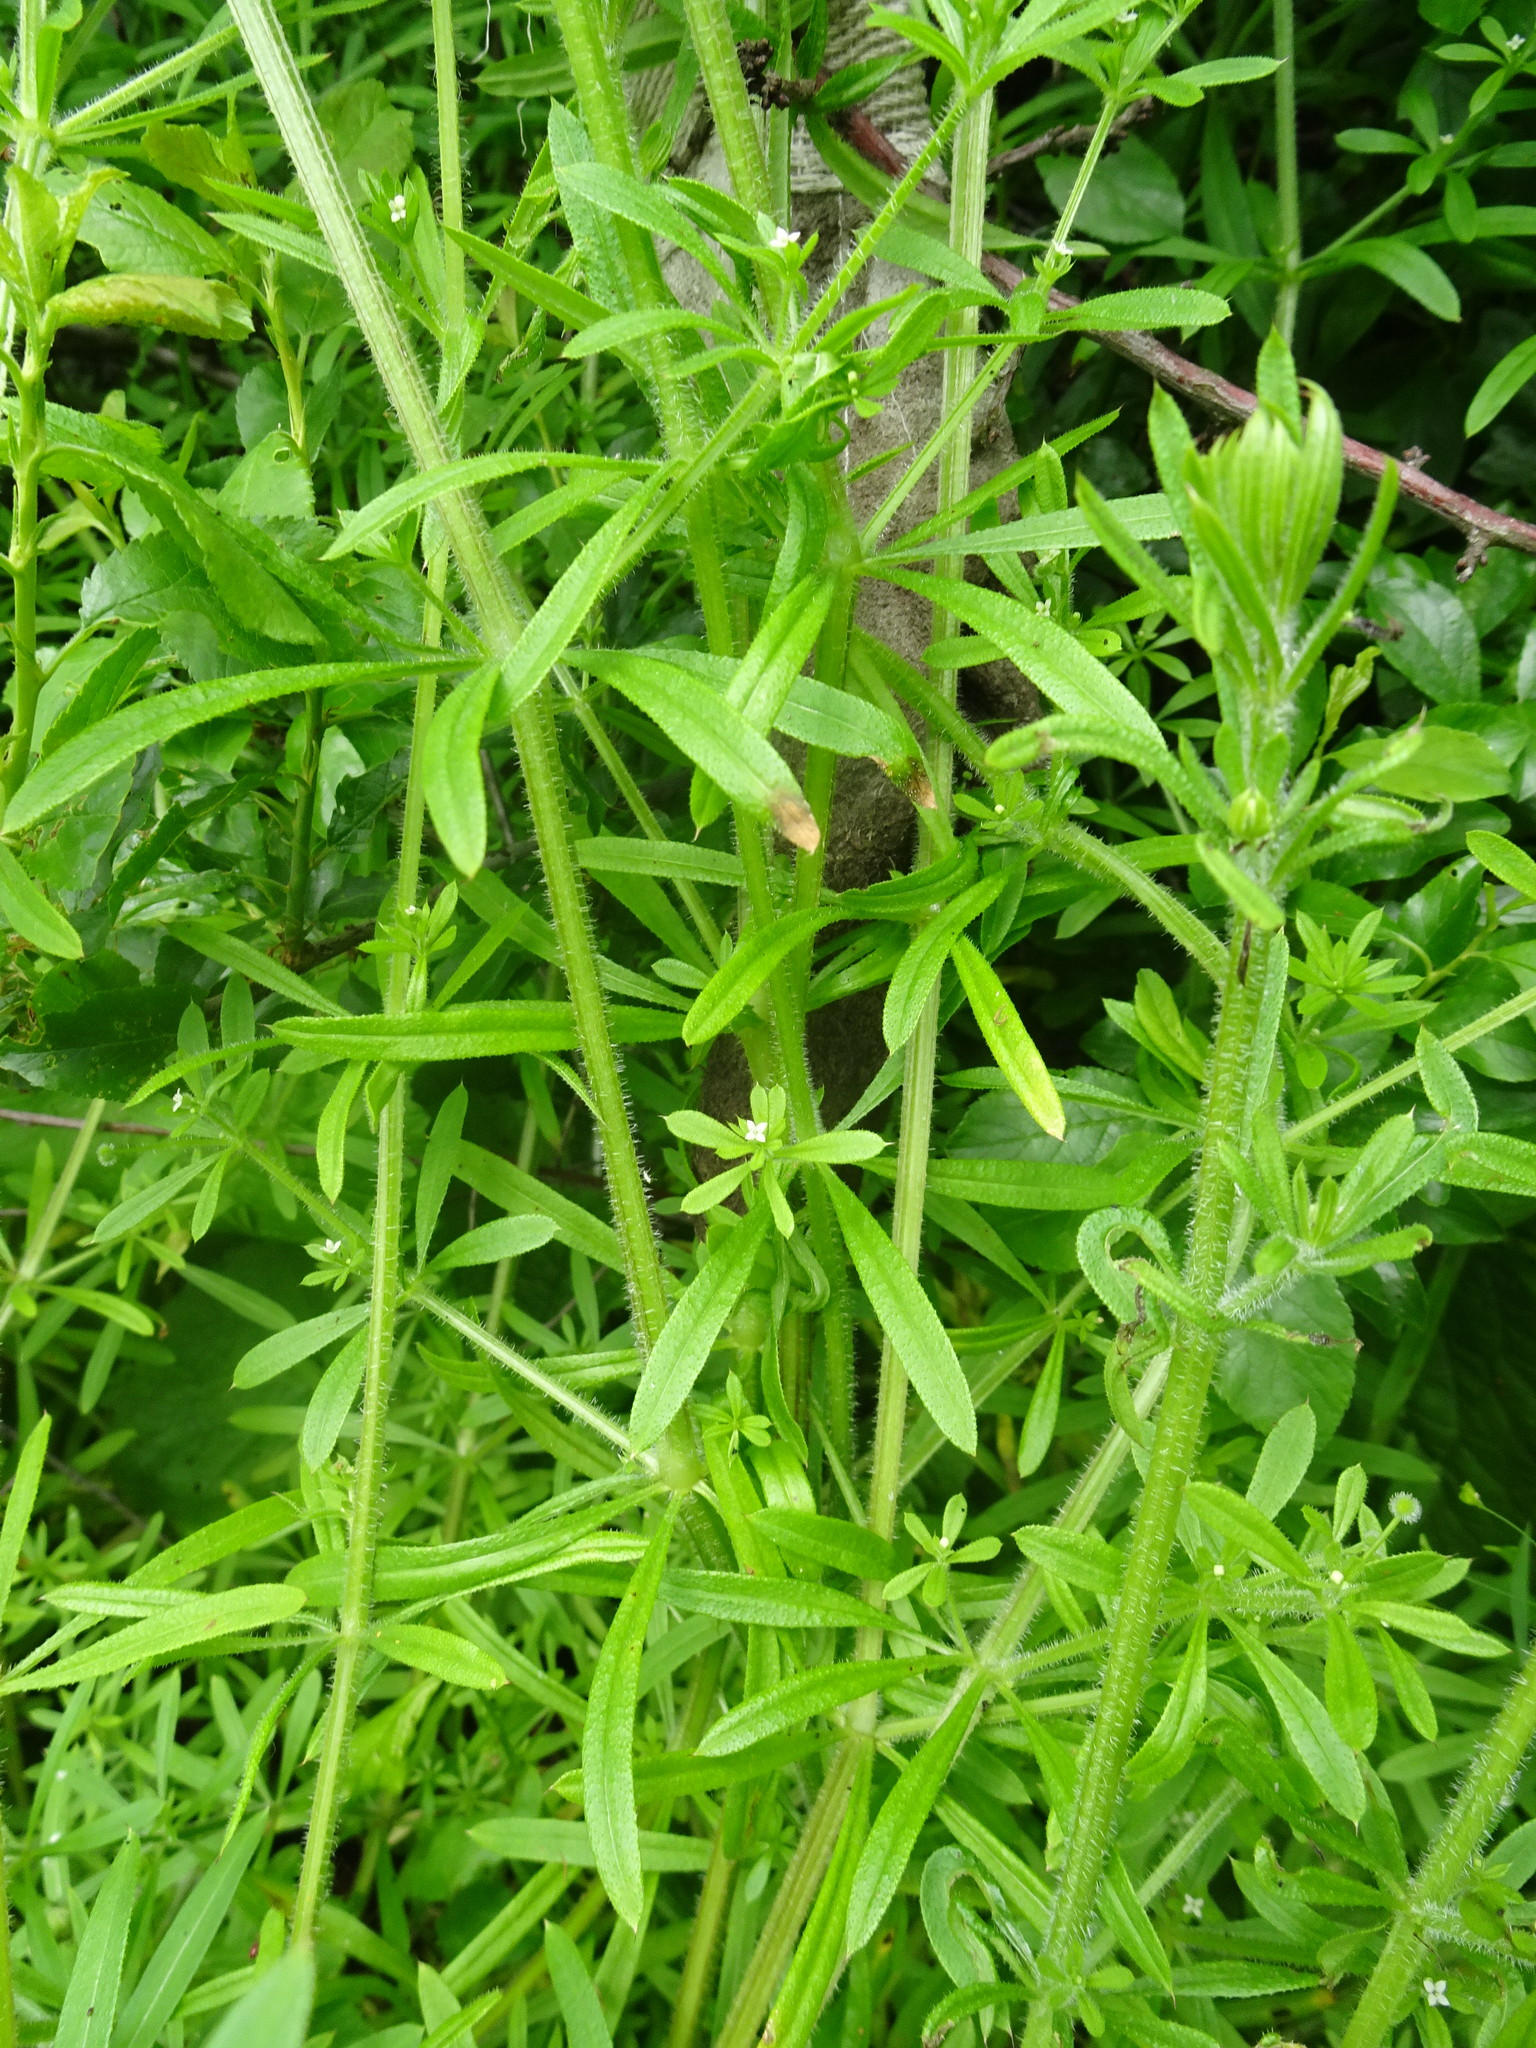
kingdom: Plantae
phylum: Tracheophyta
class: Magnoliopsida
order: Gentianales
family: Rubiaceae
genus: Galium
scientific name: Galium aparine
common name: Cleavers
